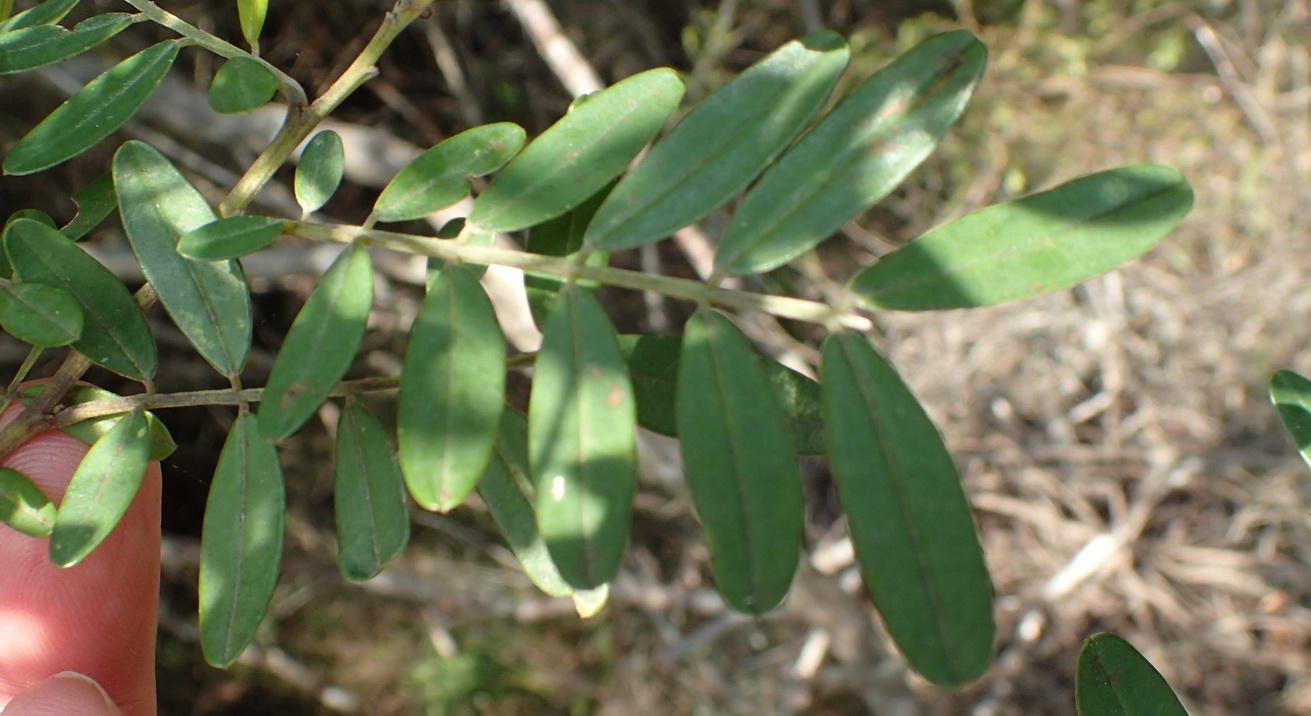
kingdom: Plantae
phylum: Tracheophyta
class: Magnoliopsida
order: Fabales
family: Fabaceae
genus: Virgilia
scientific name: Virgilia divaricata
